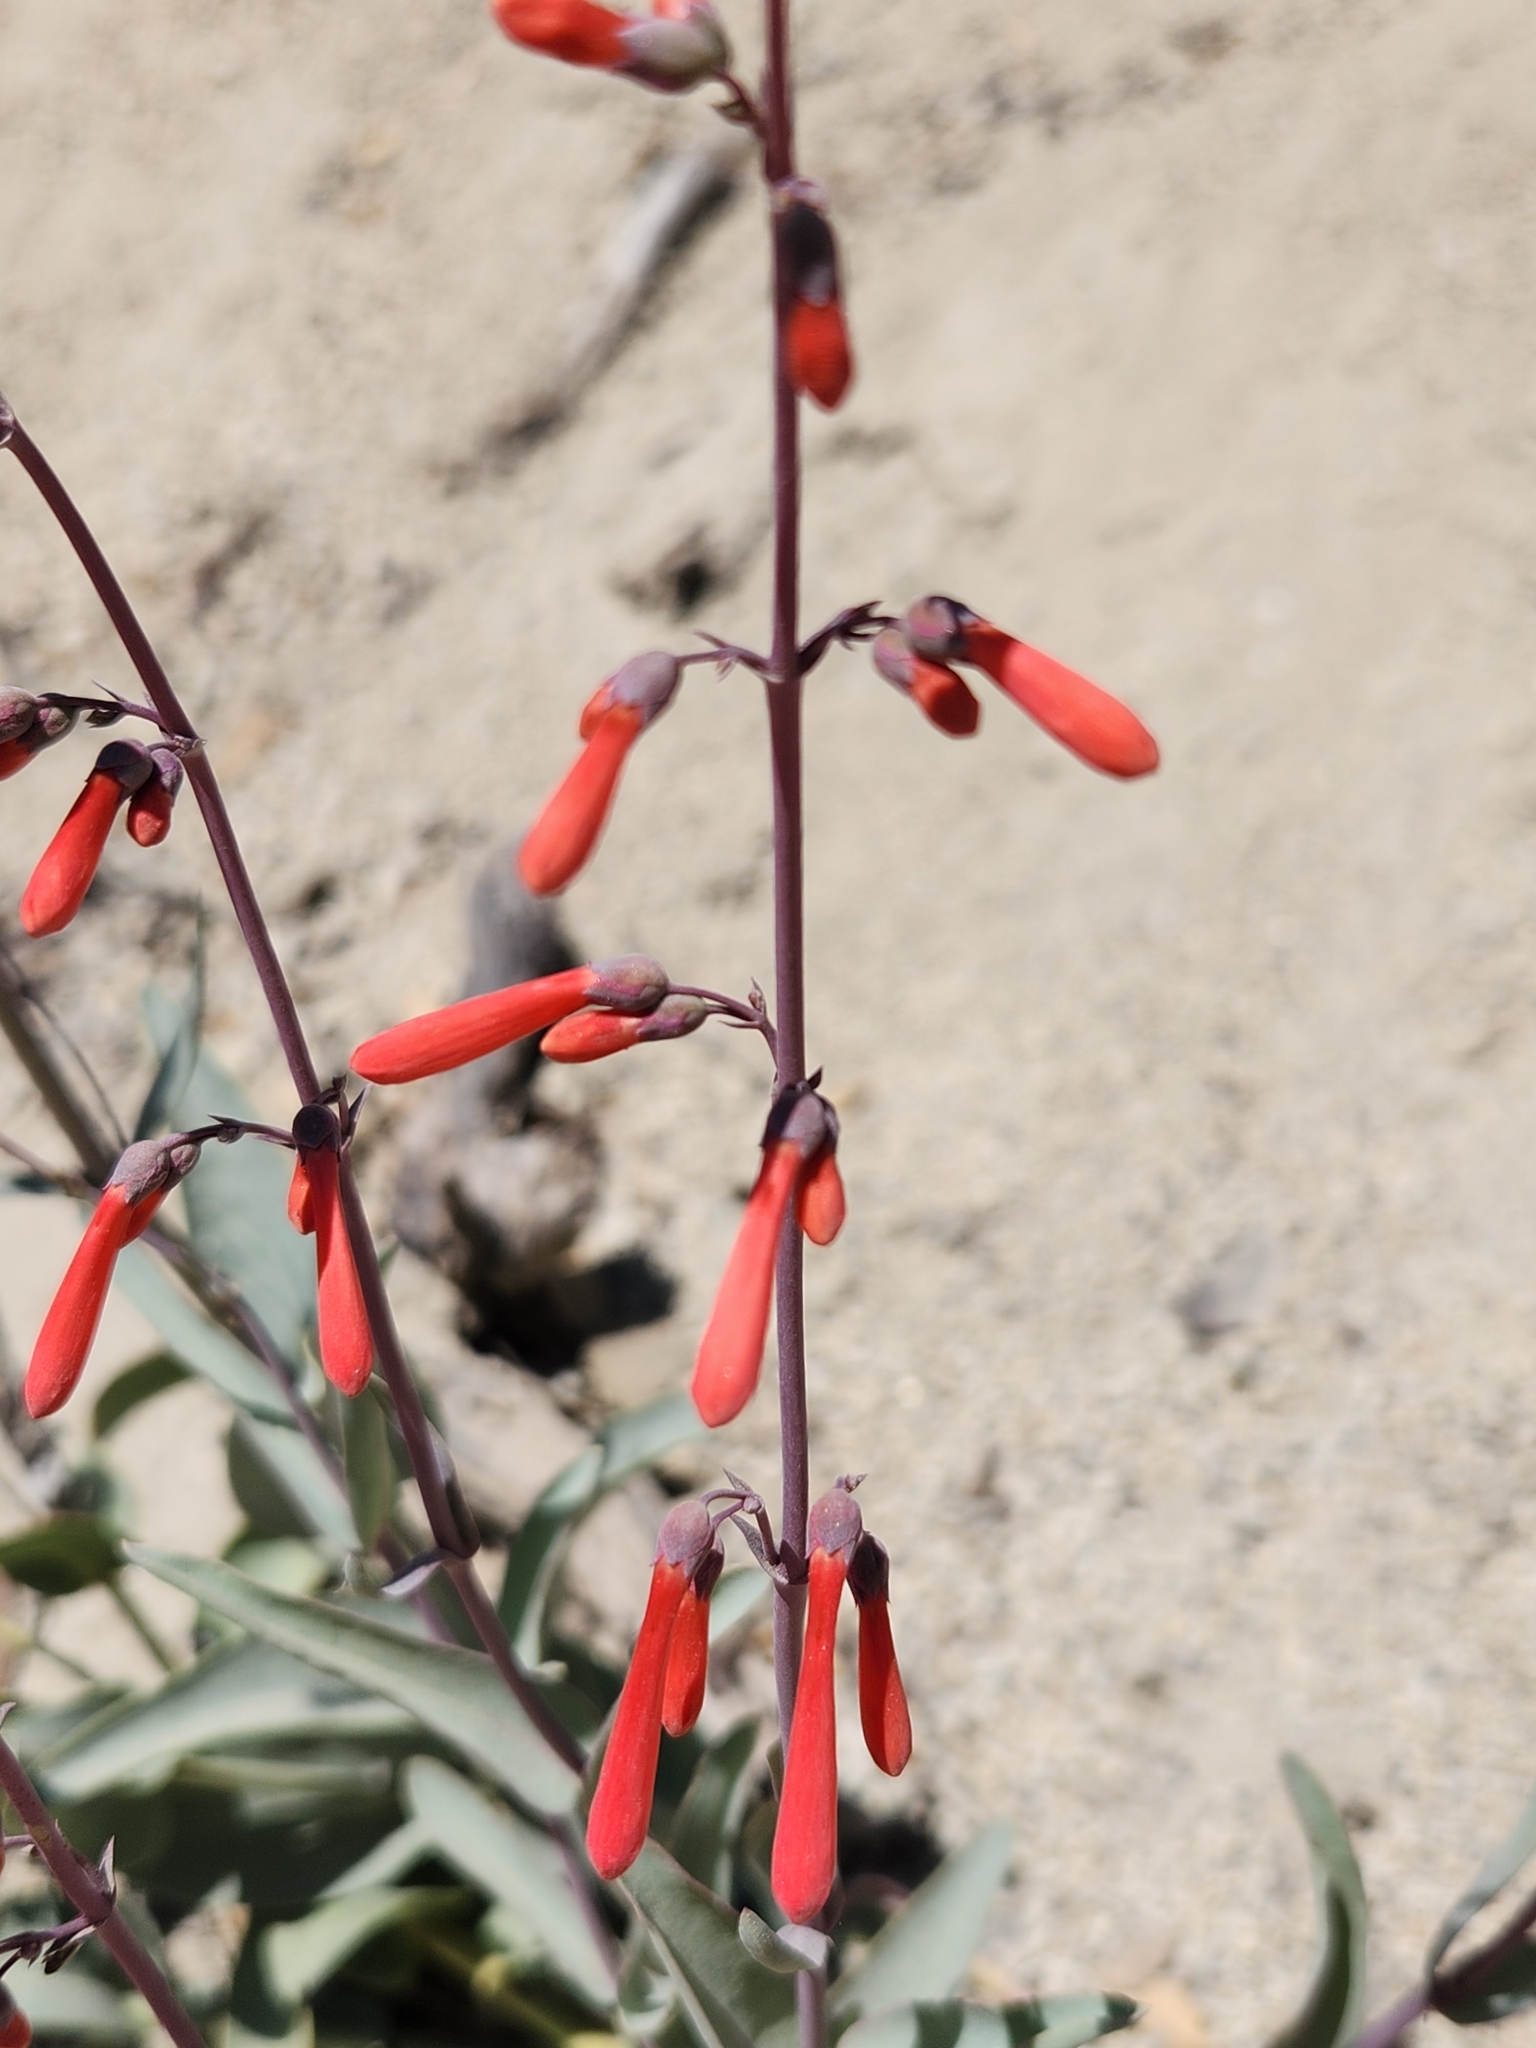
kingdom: Plantae
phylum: Tracheophyta
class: Magnoliopsida
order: Lamiales
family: Plantaginaceae
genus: Penstemon
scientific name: Penstemon centranthifolius
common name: Scarlet bugler
